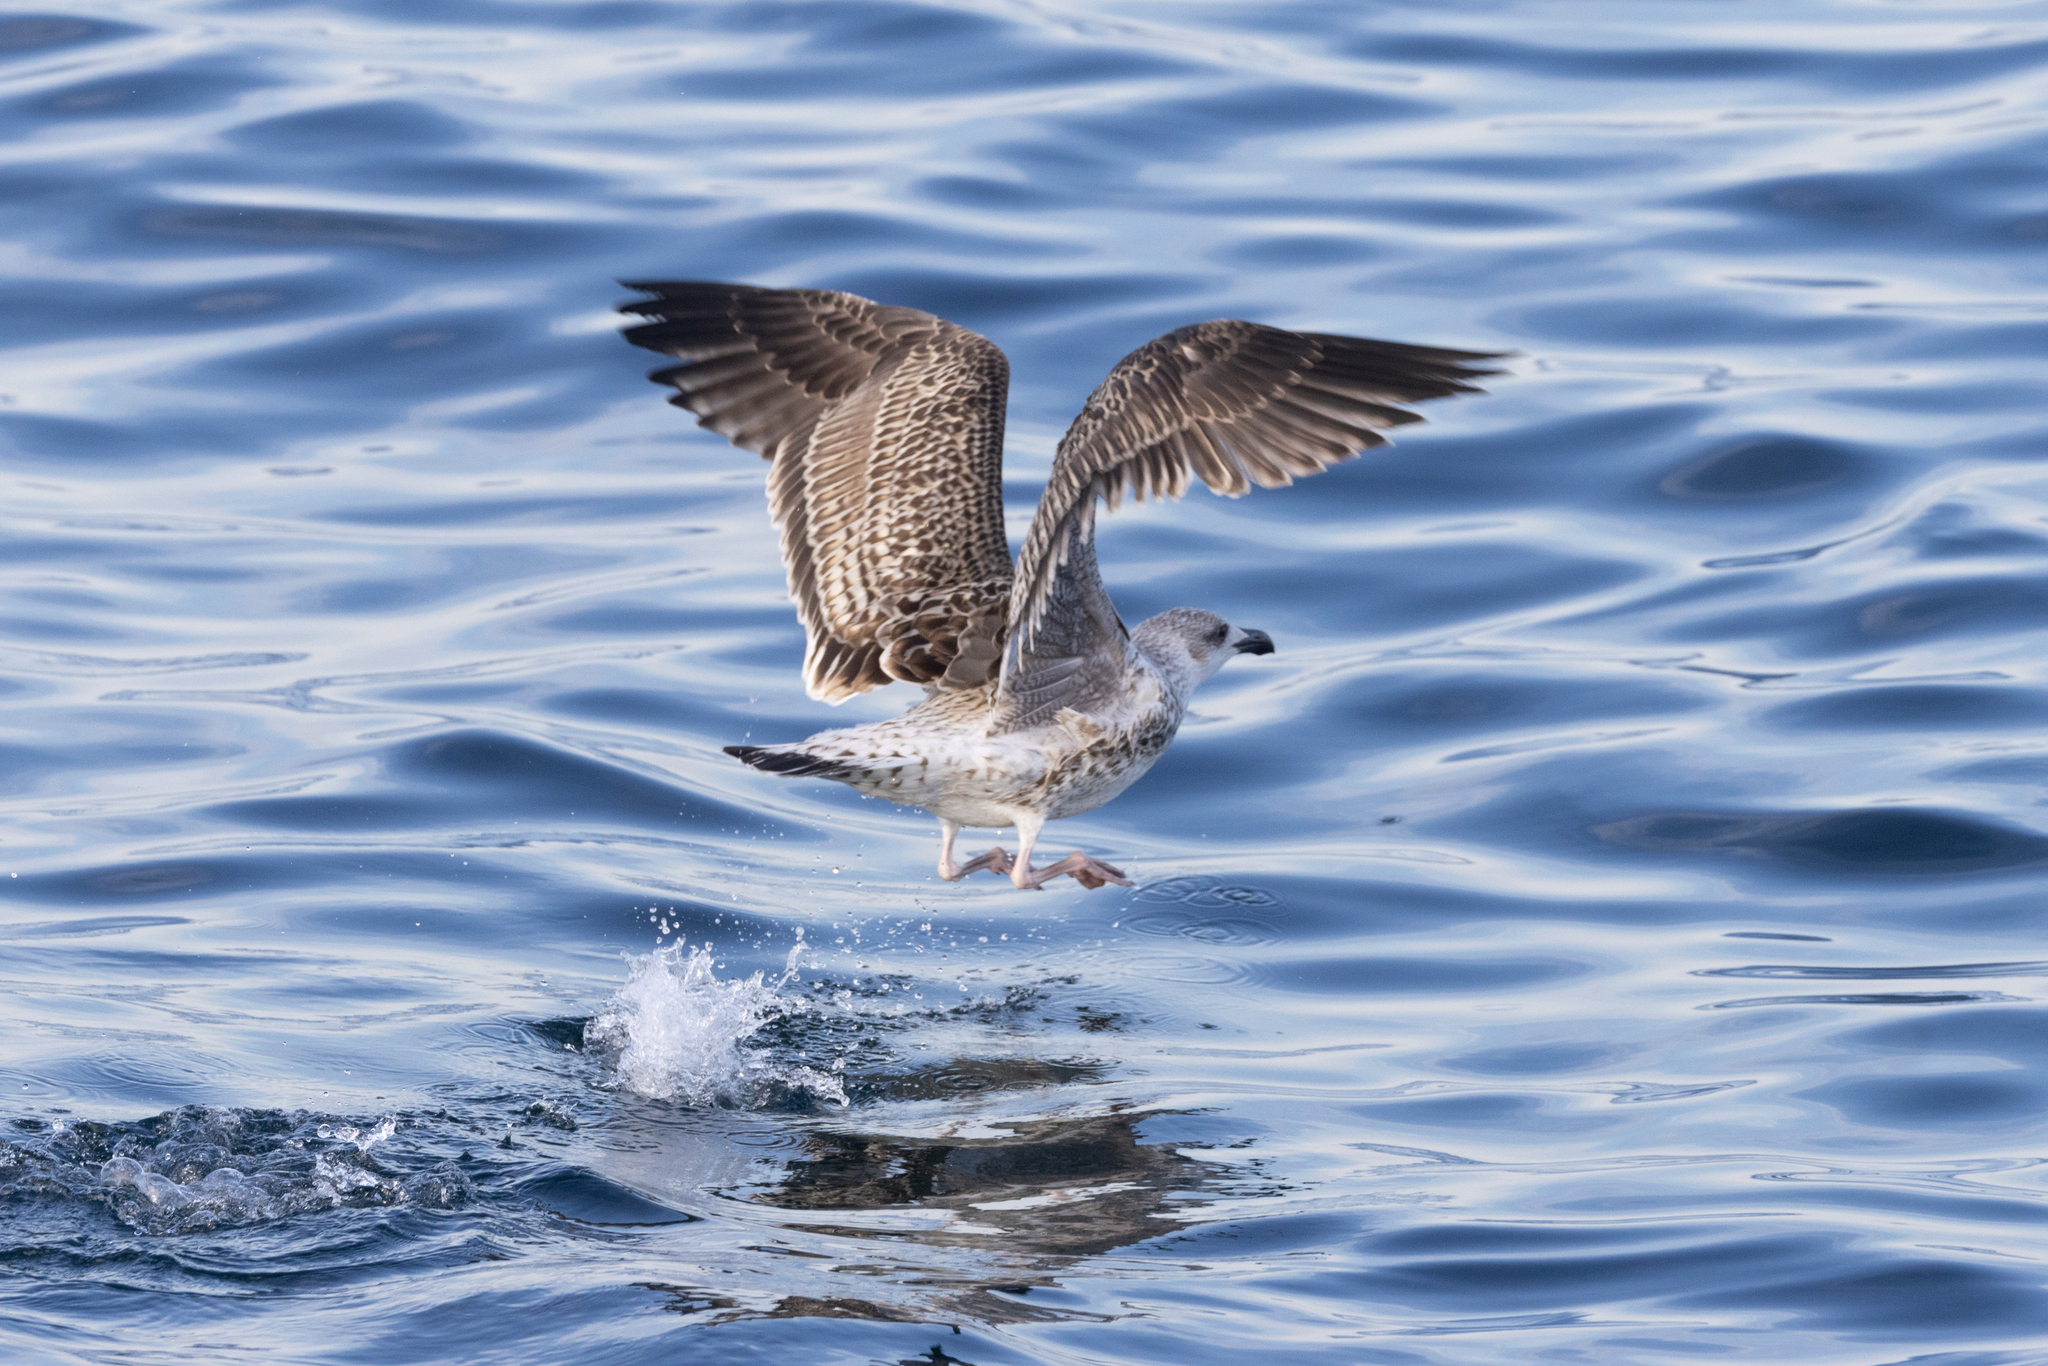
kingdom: Animalia
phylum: Chordata
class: Aves
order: Charadriiformes
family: Laridae
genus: Larus
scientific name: Larus marinus
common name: Great black-backed gull
